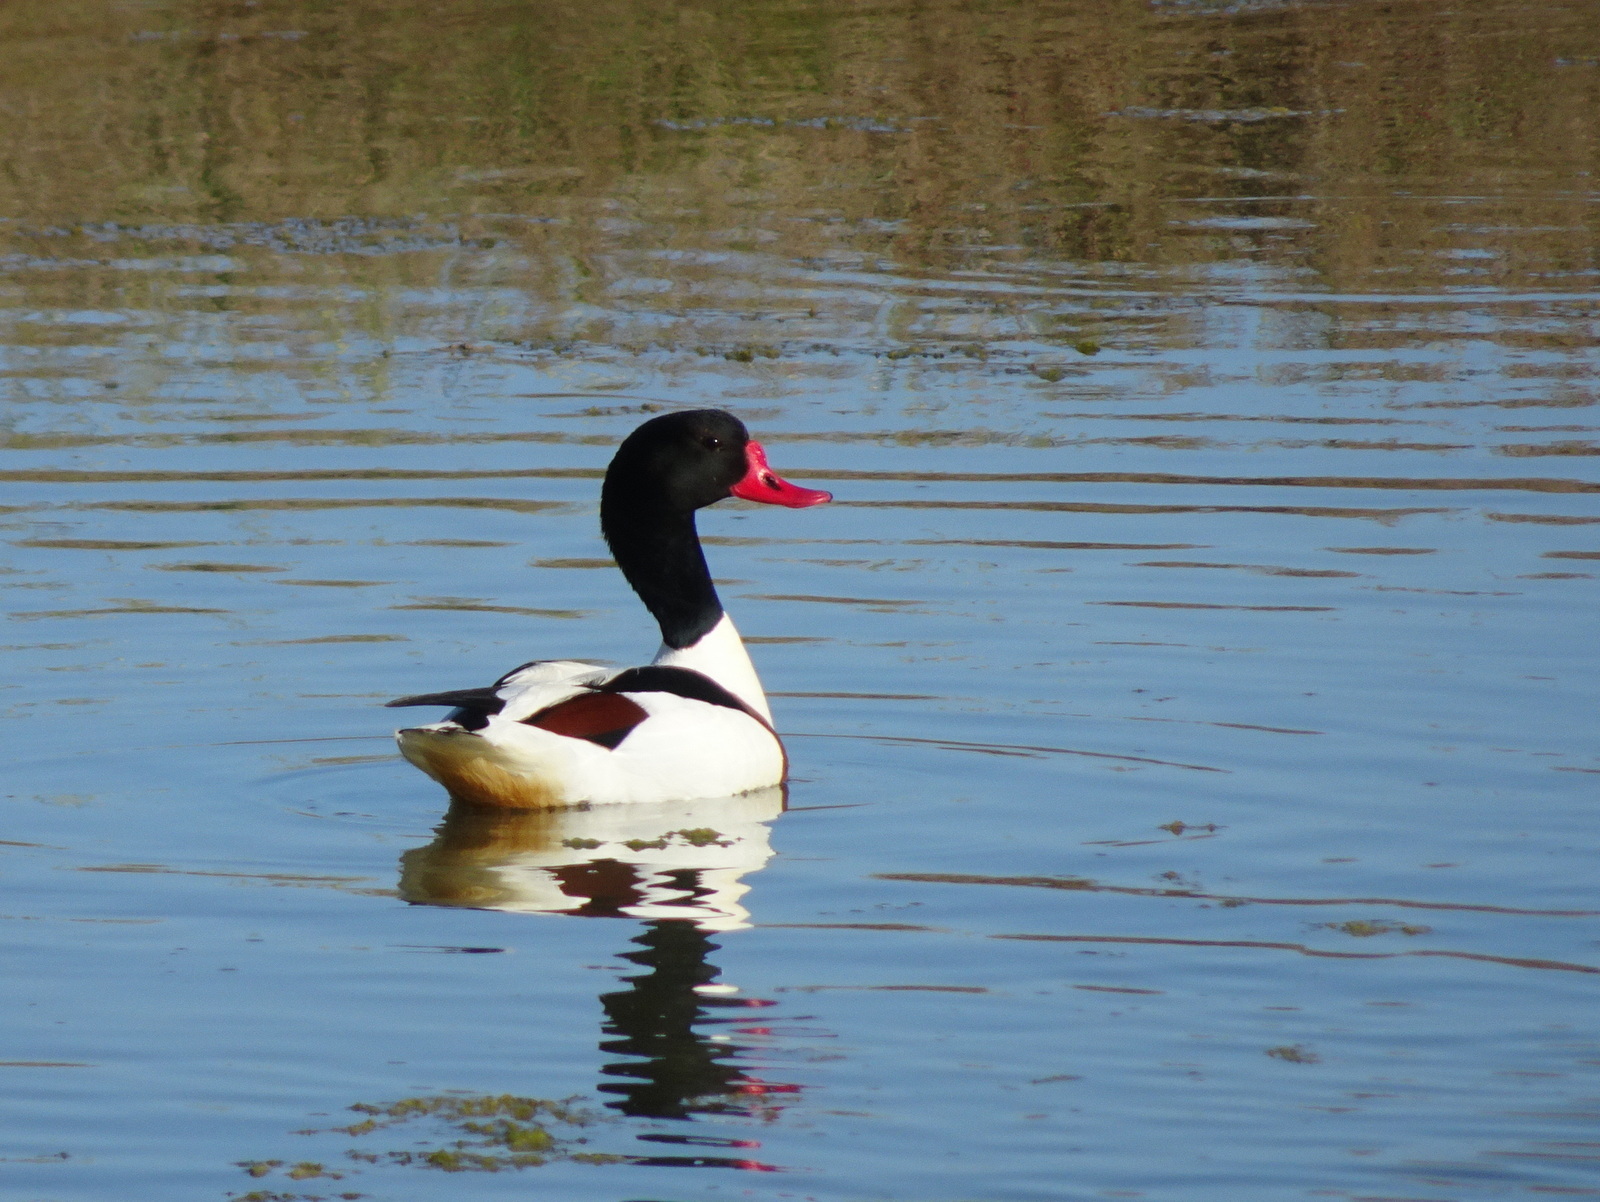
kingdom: Animalia
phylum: Chordata
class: Aves
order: Anseriformes
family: Anatidae
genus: Tadorna
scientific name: Tadorna tadorna
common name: Common shelduck
